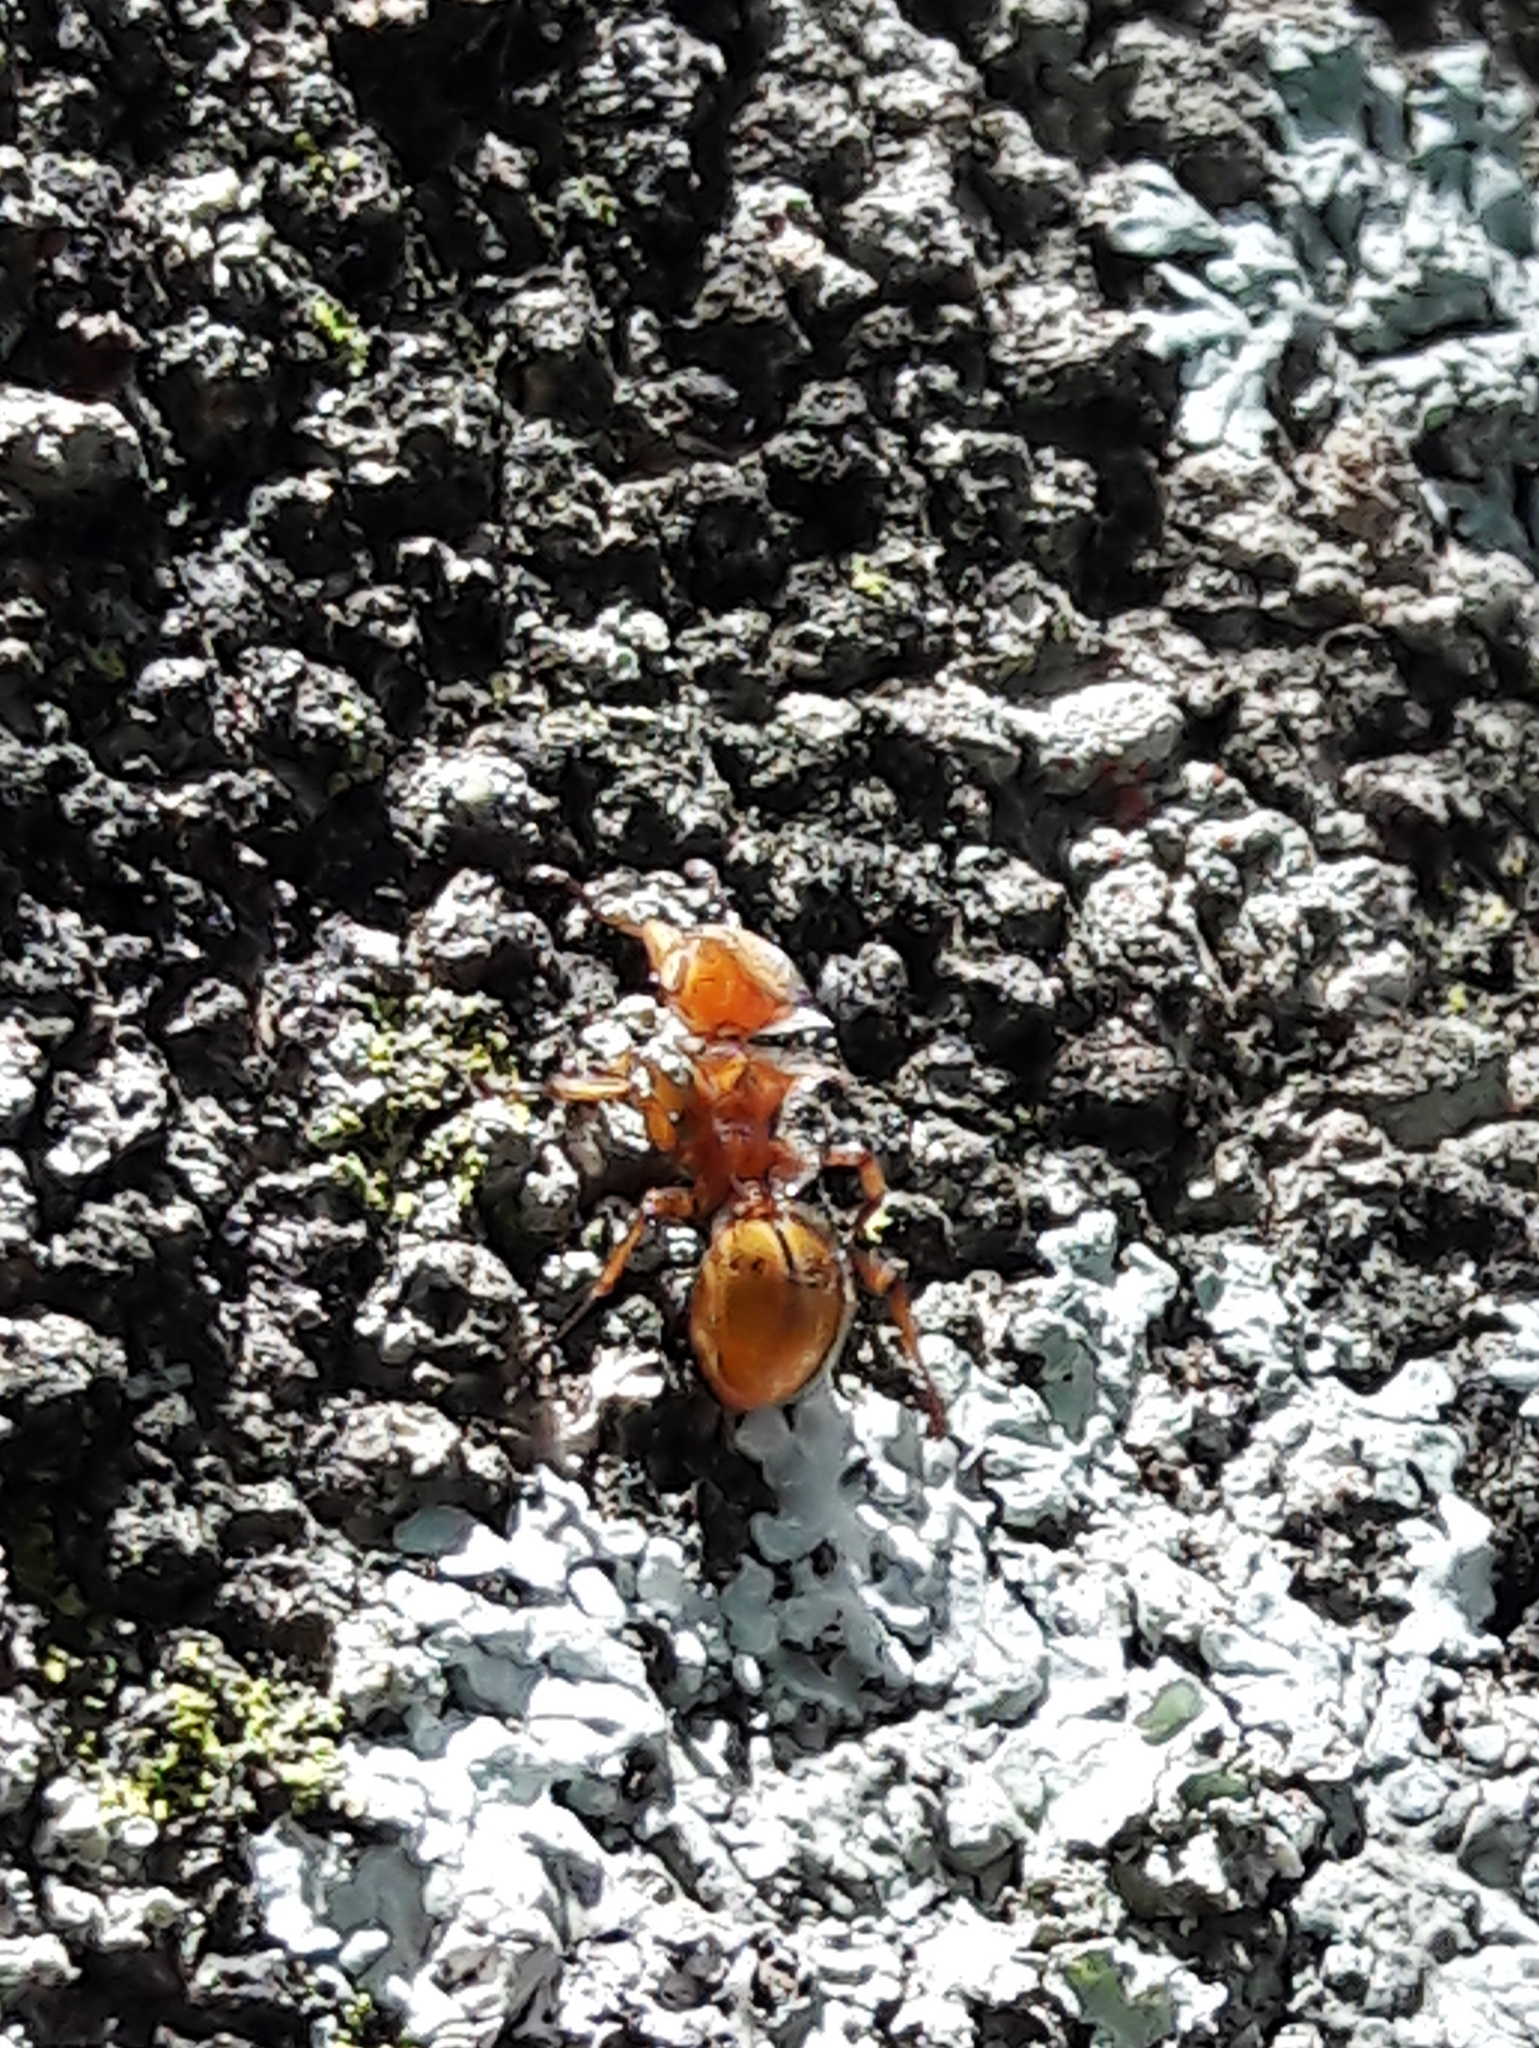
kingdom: Animalia
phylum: Arthropoda
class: Insecta
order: Hymenoptera
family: Formicidae
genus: Cephalotes
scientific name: Cephalotes clypeatus
